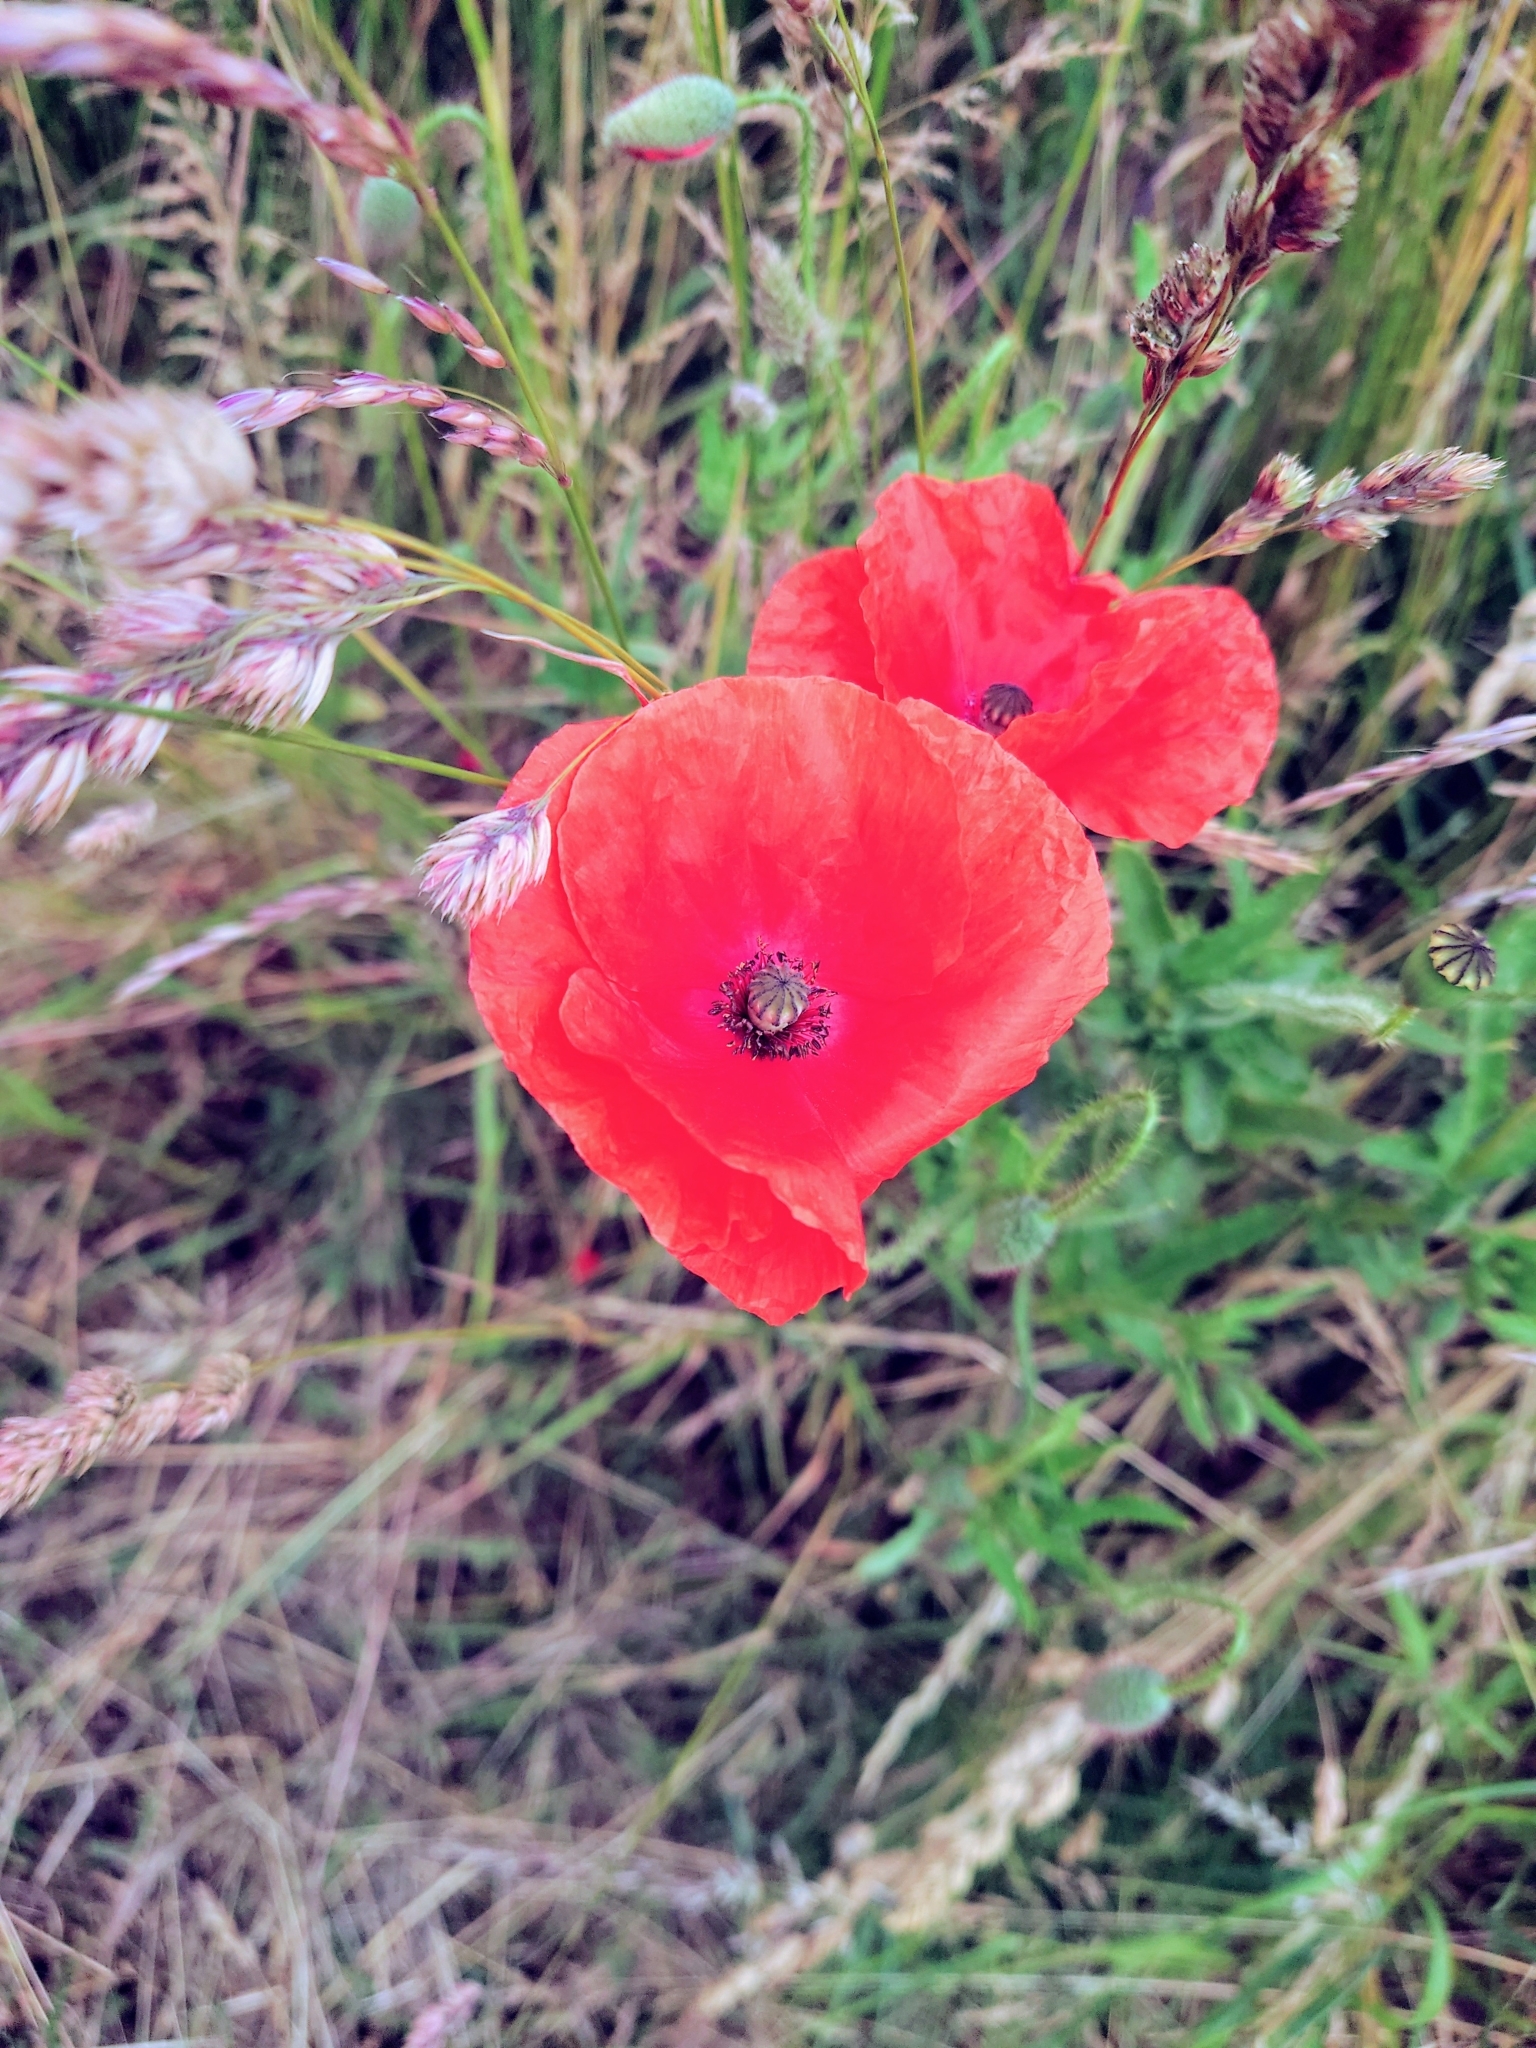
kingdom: Plantae
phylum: Tracheophyta
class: Magnoliopsida
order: Ranunculales
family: Papaveraceae
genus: Papaver
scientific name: Papaver rhoeas
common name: Corn poppy
